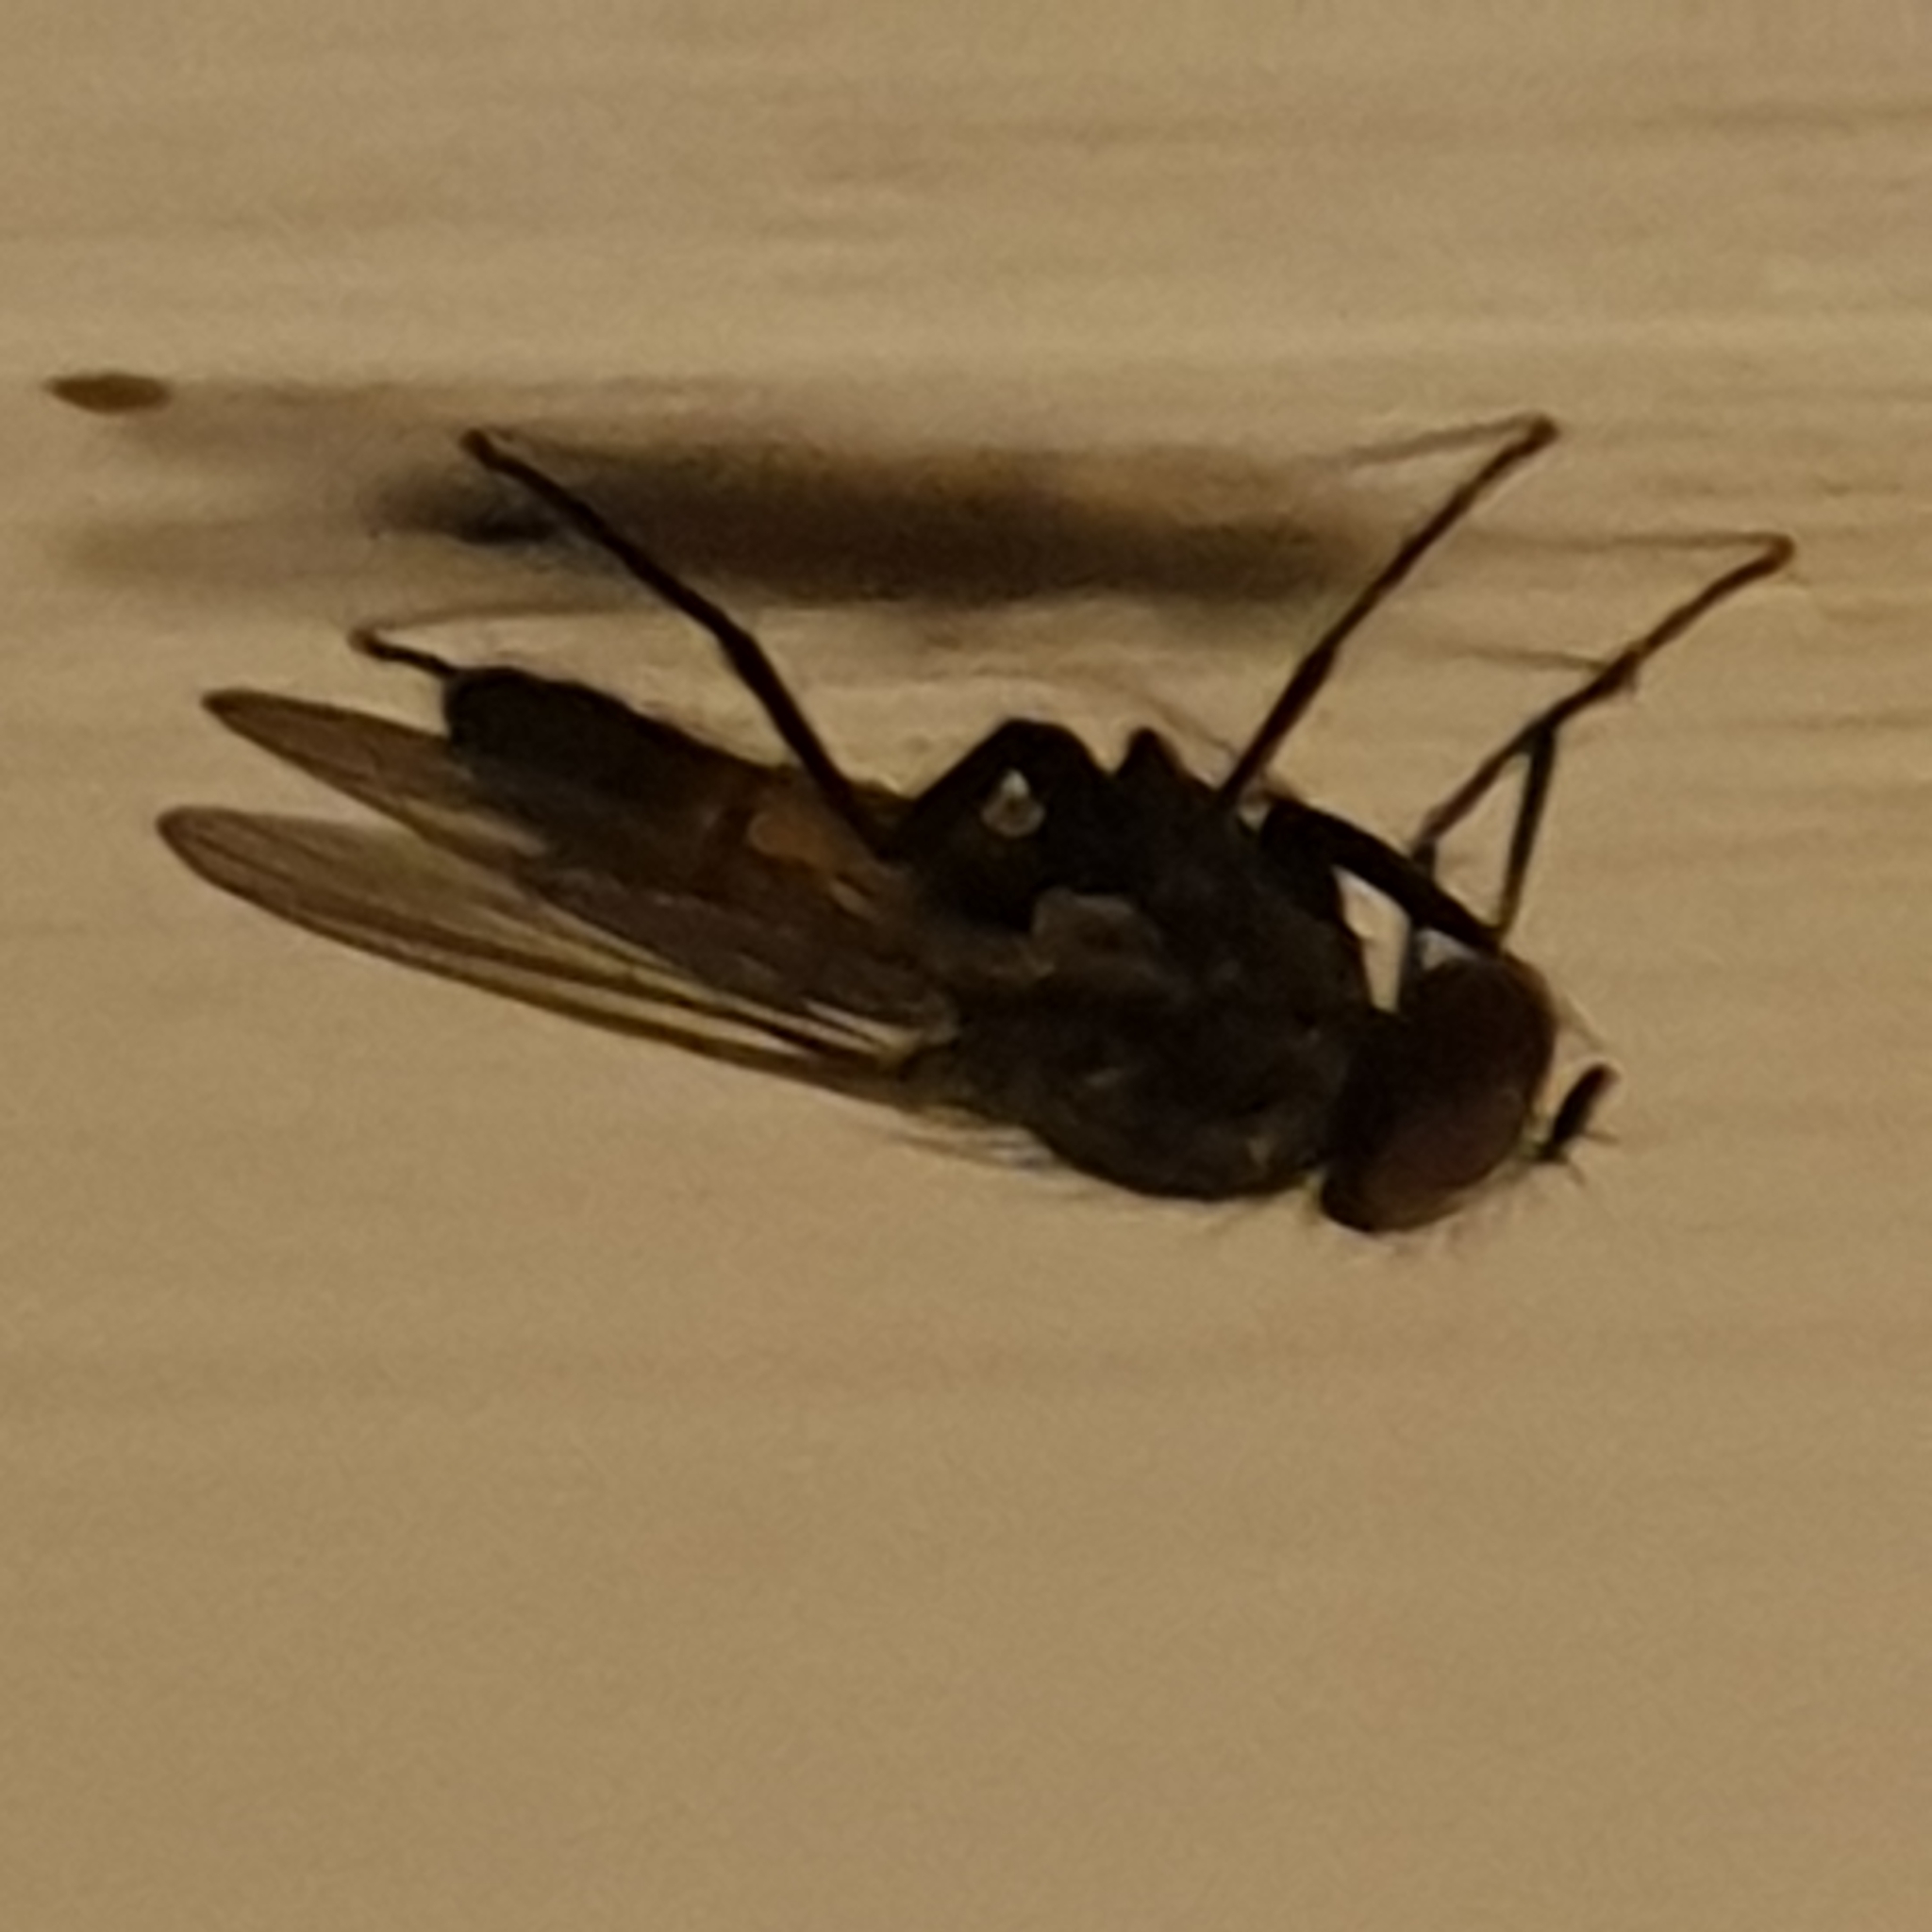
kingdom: Animalia
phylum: Arthropoda
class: Insecta
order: Diptera
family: Fanniidae
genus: Fannia
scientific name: Fannia canicularis
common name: Little house fly
